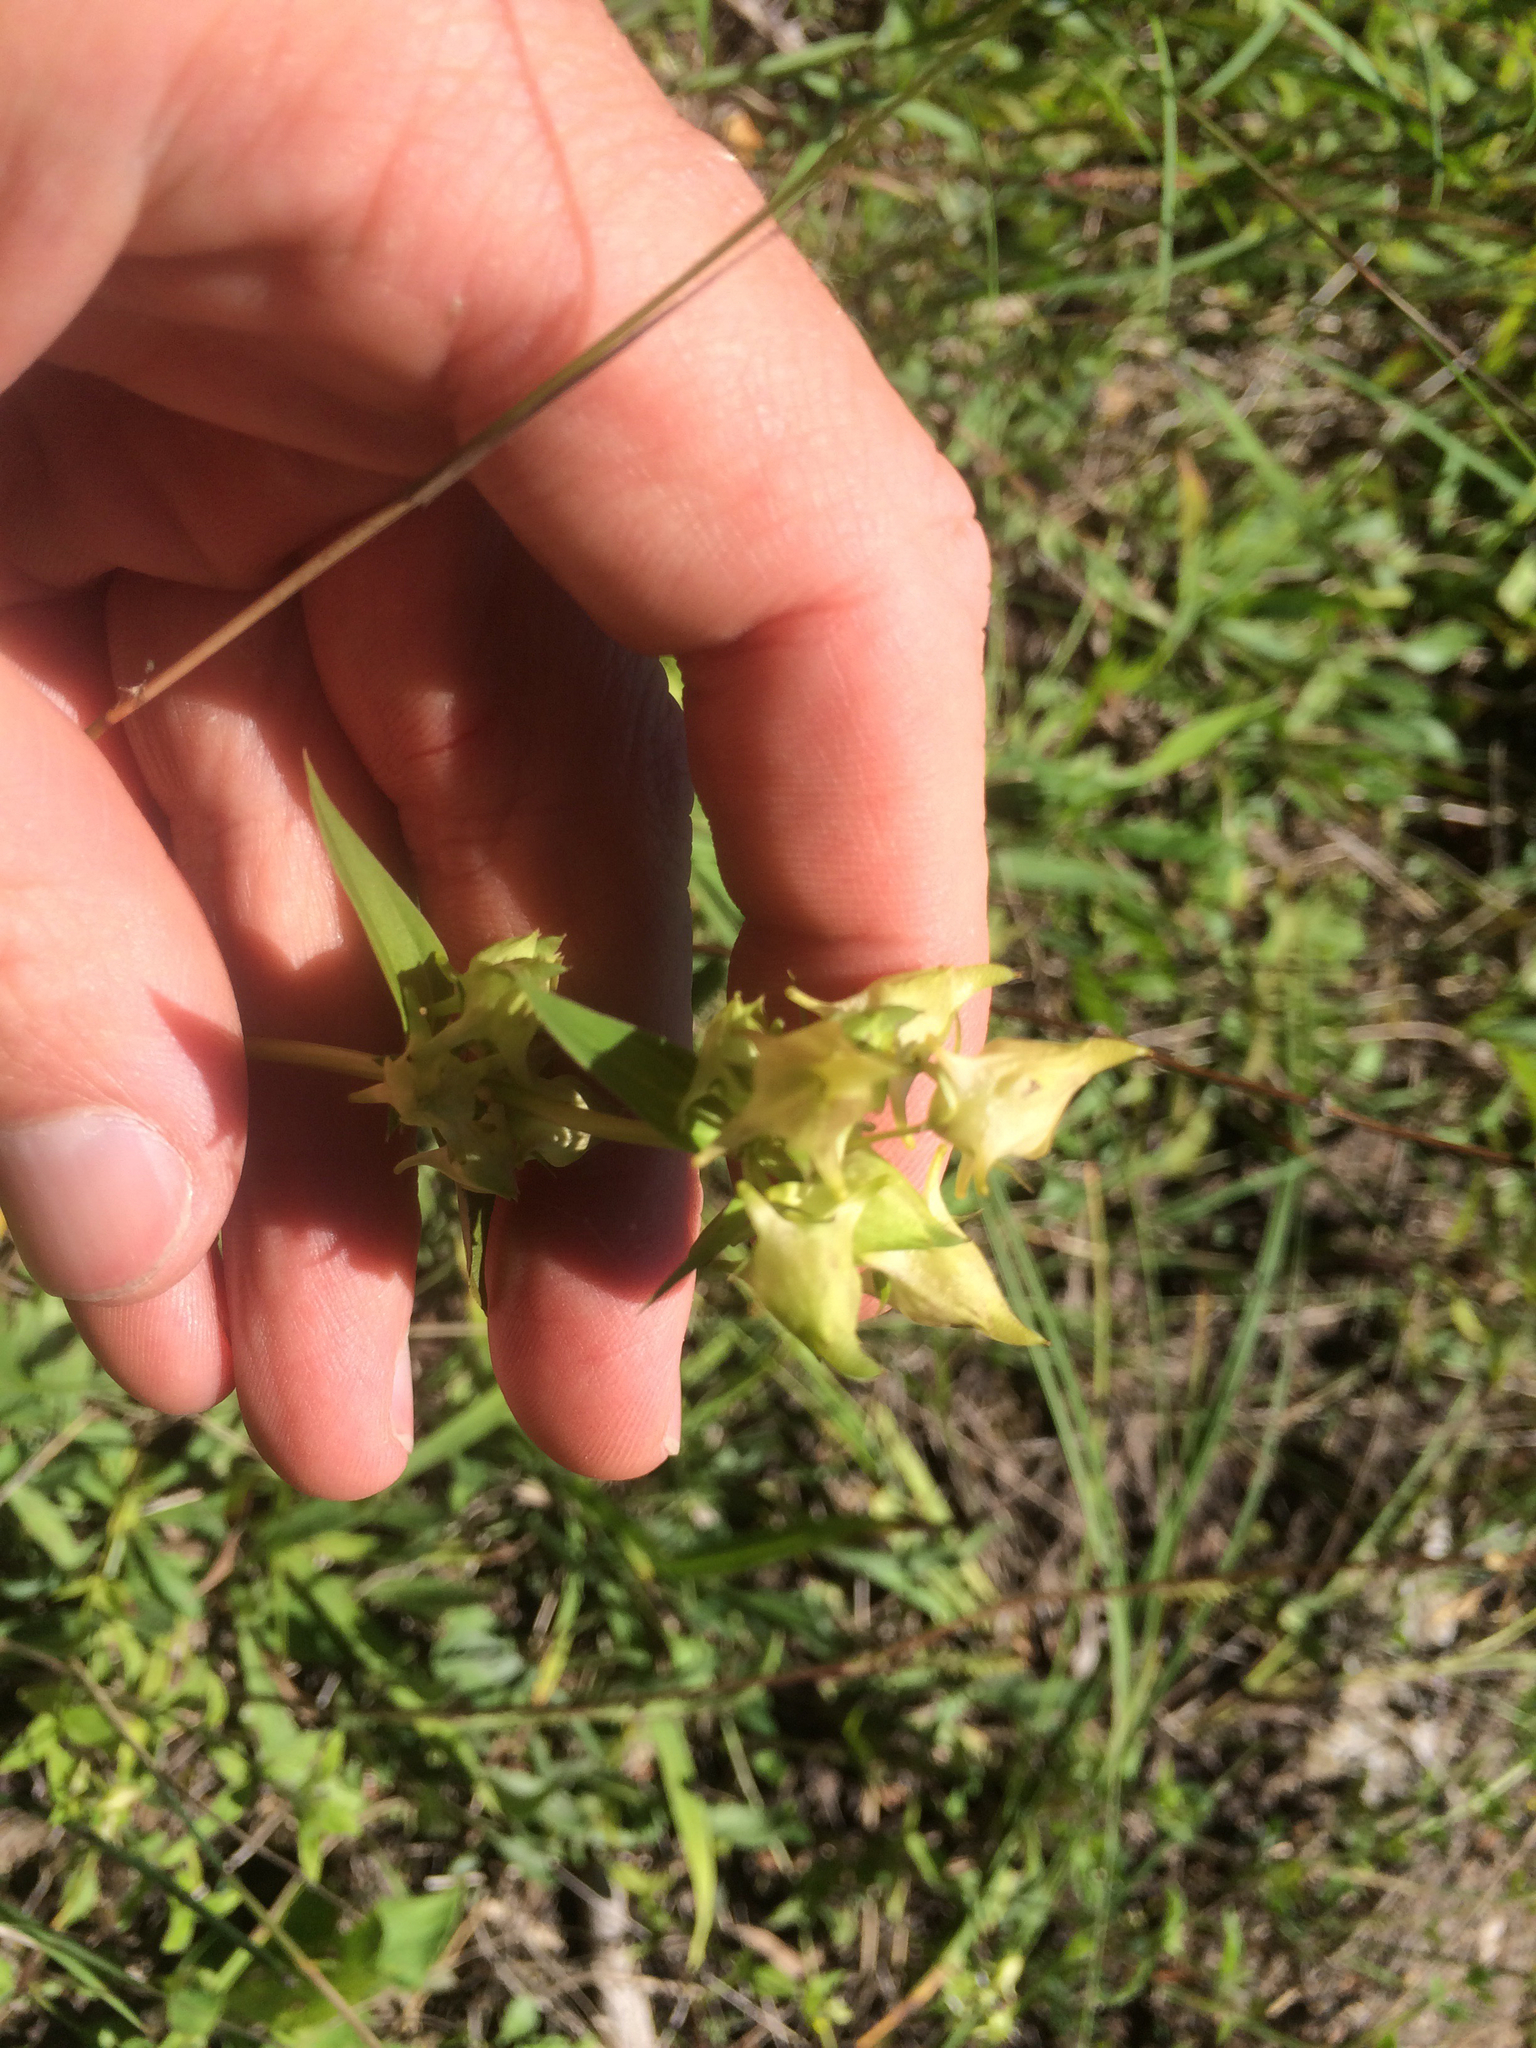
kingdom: Plantae
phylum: Tracheophyta
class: Magnoliopsida
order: Gentianales
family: Gentianaceae
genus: Halenia
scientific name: Halenia deflexa
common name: American spurred gentian
